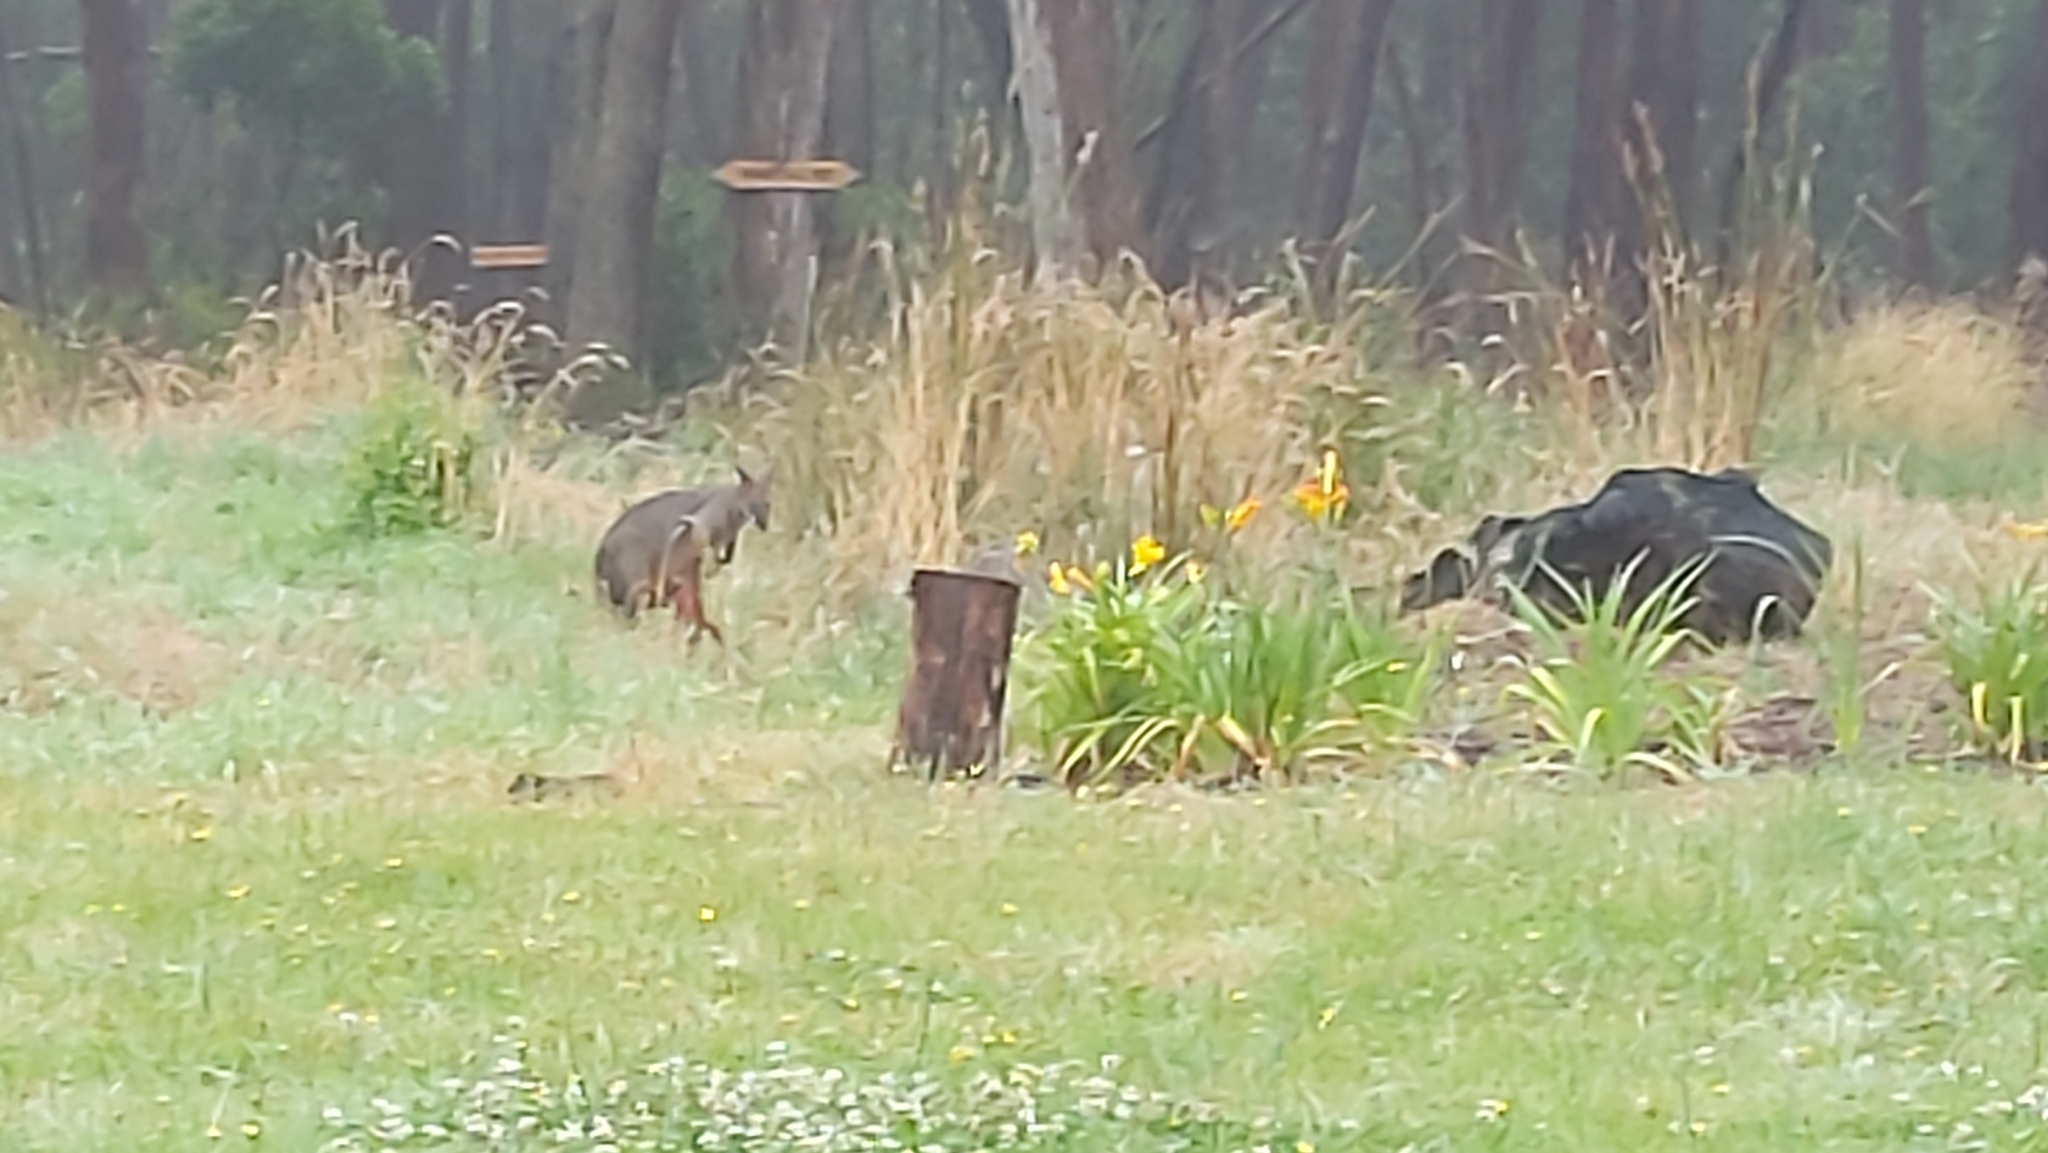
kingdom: Animalia
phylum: Chordata
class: Mammalia
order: Diprotodontia
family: Macropodidae
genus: Wallabia
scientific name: Wallabia bicolor
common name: Swamp wallaby
